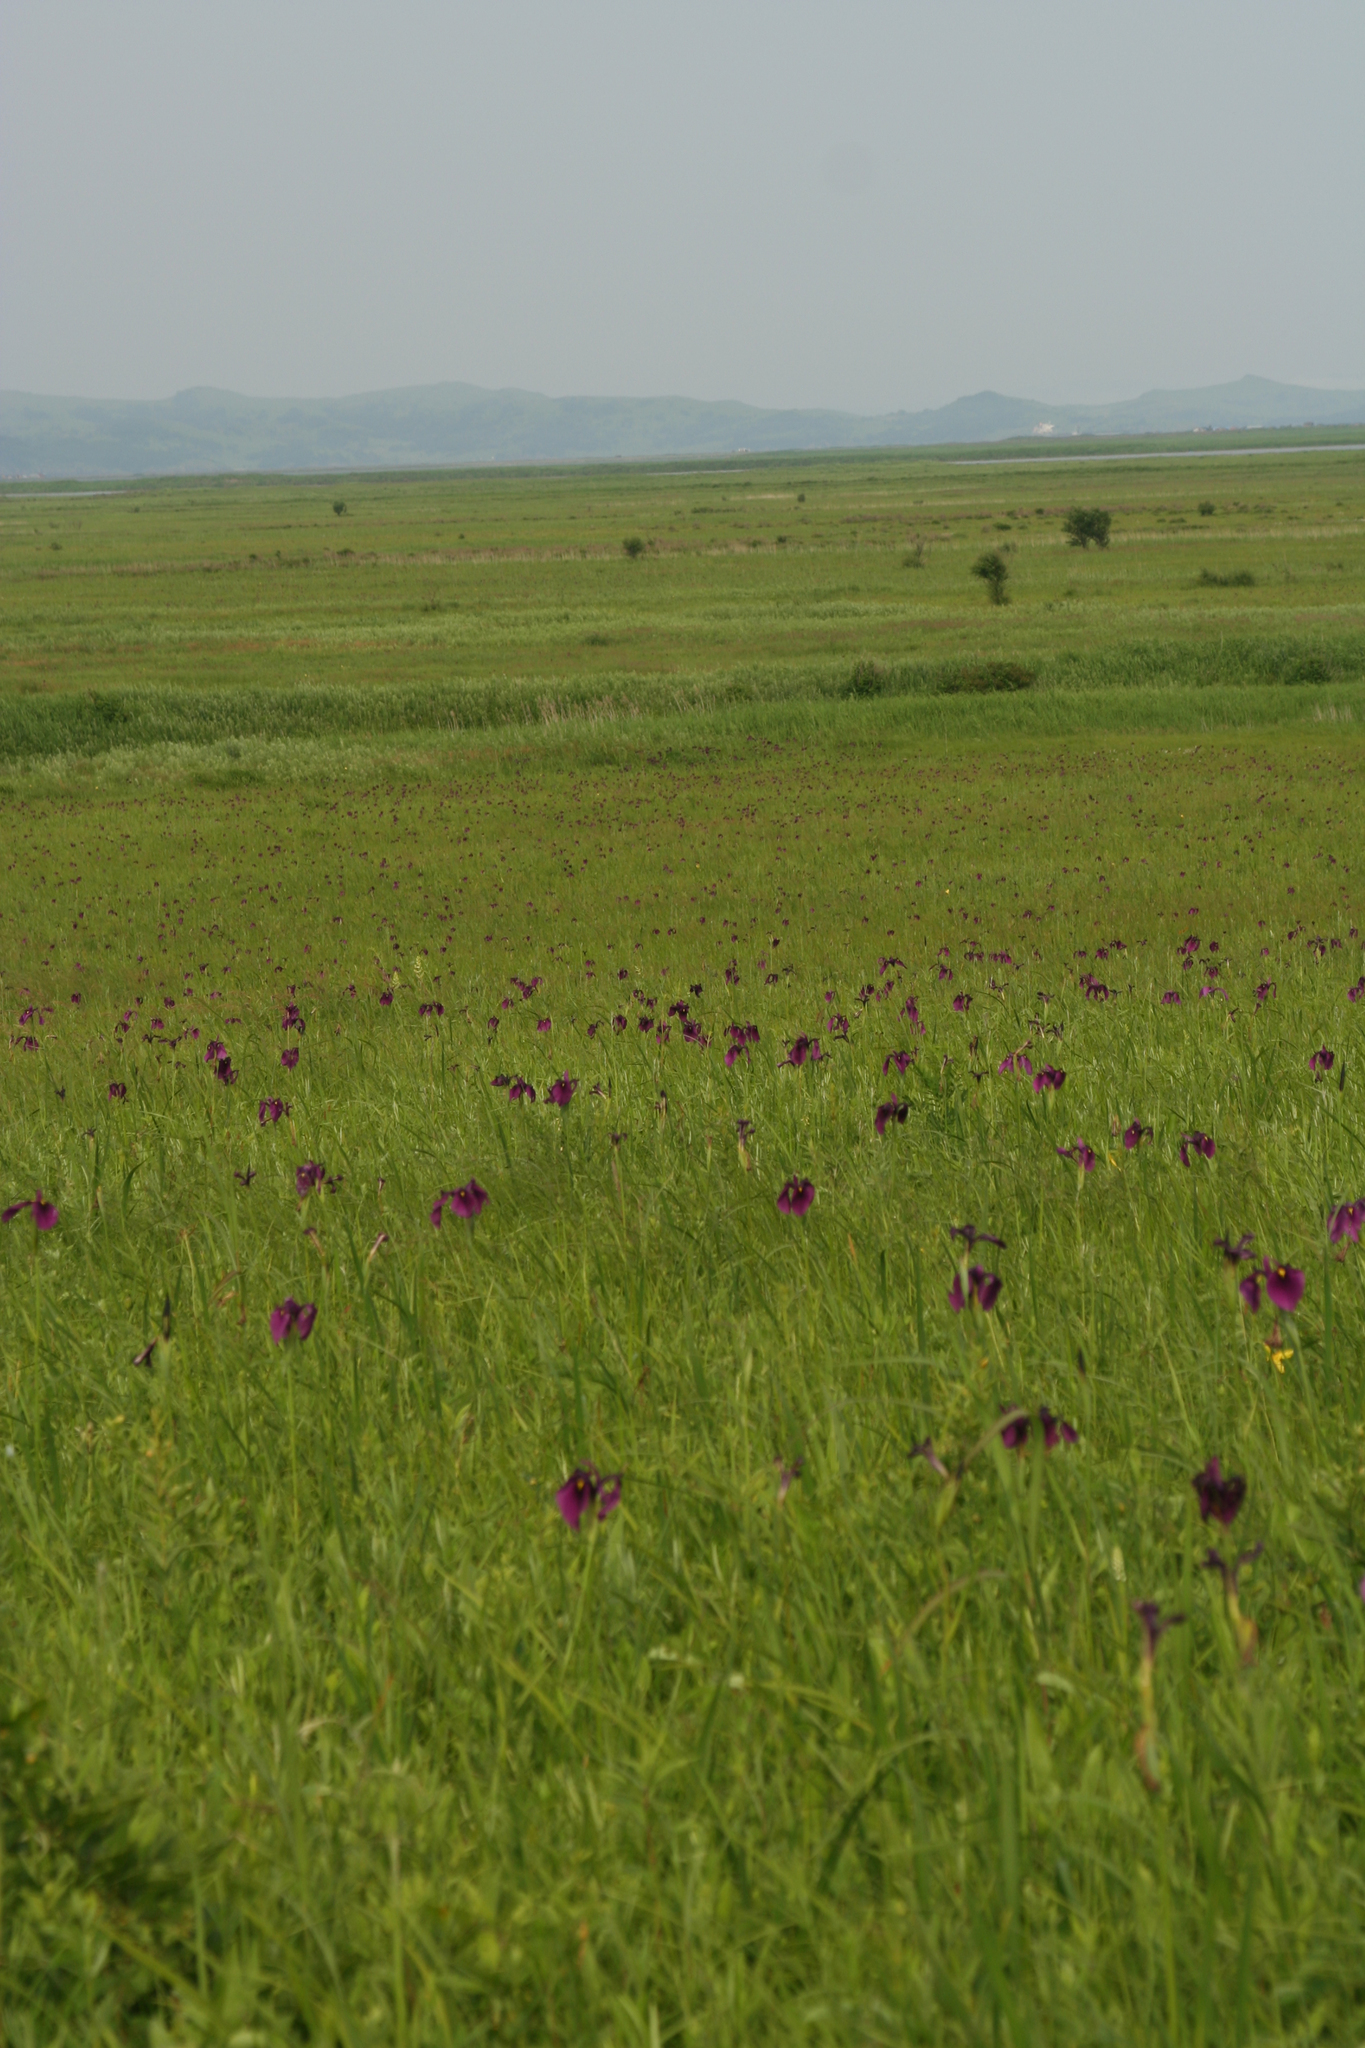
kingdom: Plantae
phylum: Tracheophyta
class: Liliopsida
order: Asparagales
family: Iridaceae
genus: Iris
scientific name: Iris ensata
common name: Beaked iris
